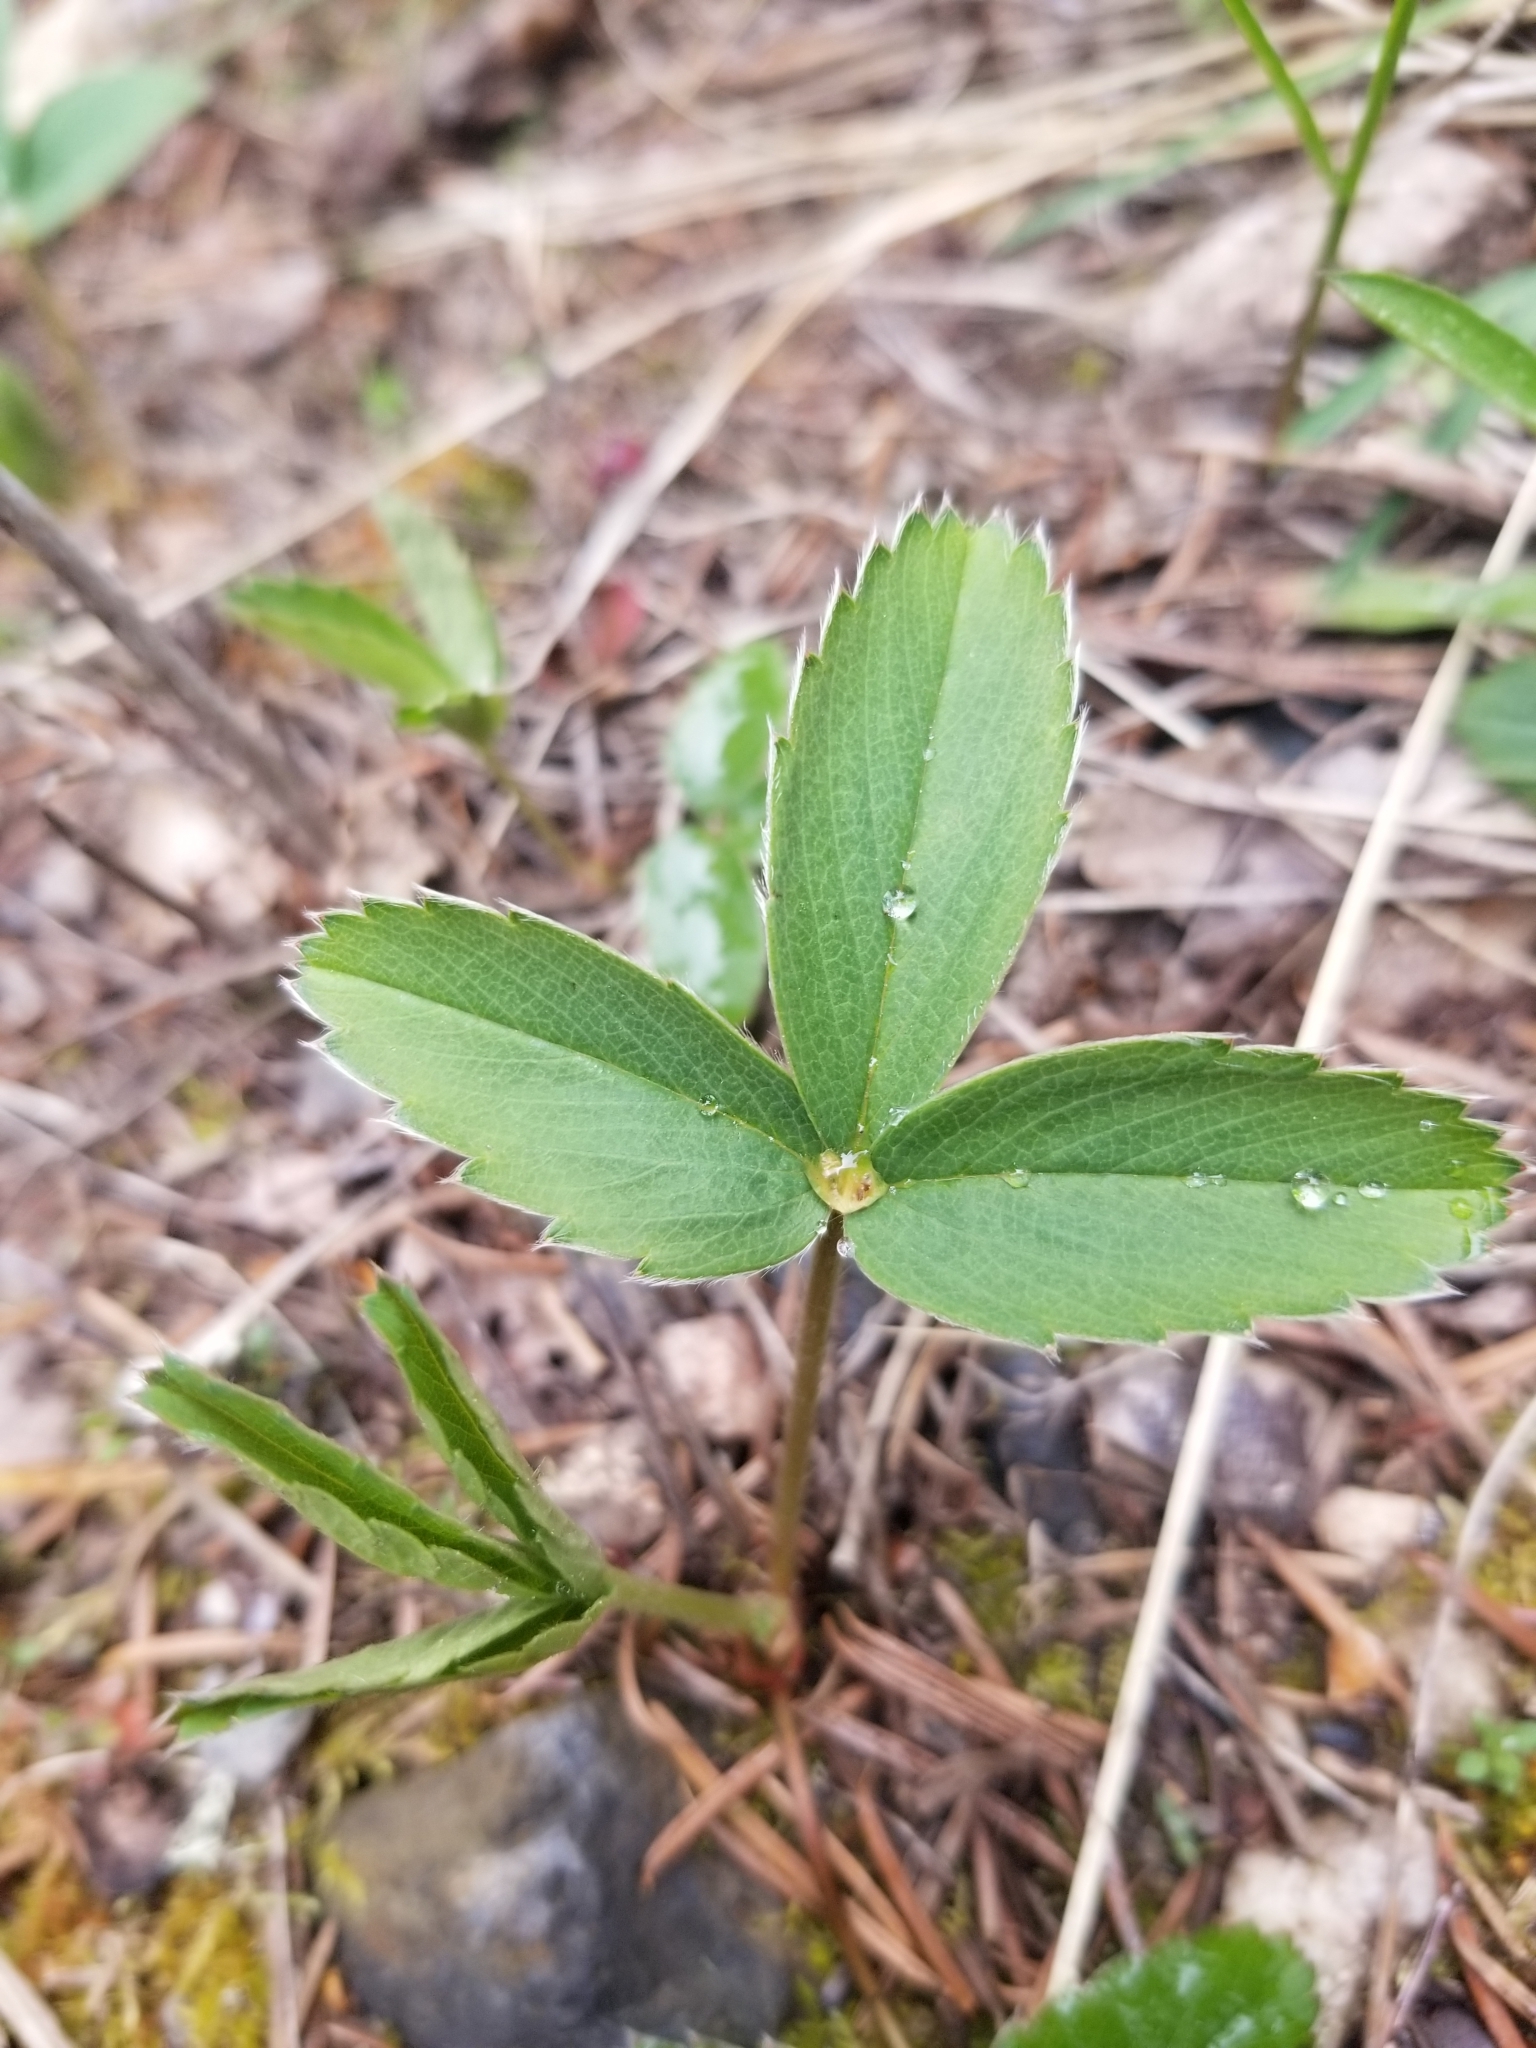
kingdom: Plantae
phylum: Tracheophyta
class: Magnoliopsida
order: Rosales
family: Rosaceae
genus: Fragaria
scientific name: Fragaria virginiana
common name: Thickleaved wild strawberry
